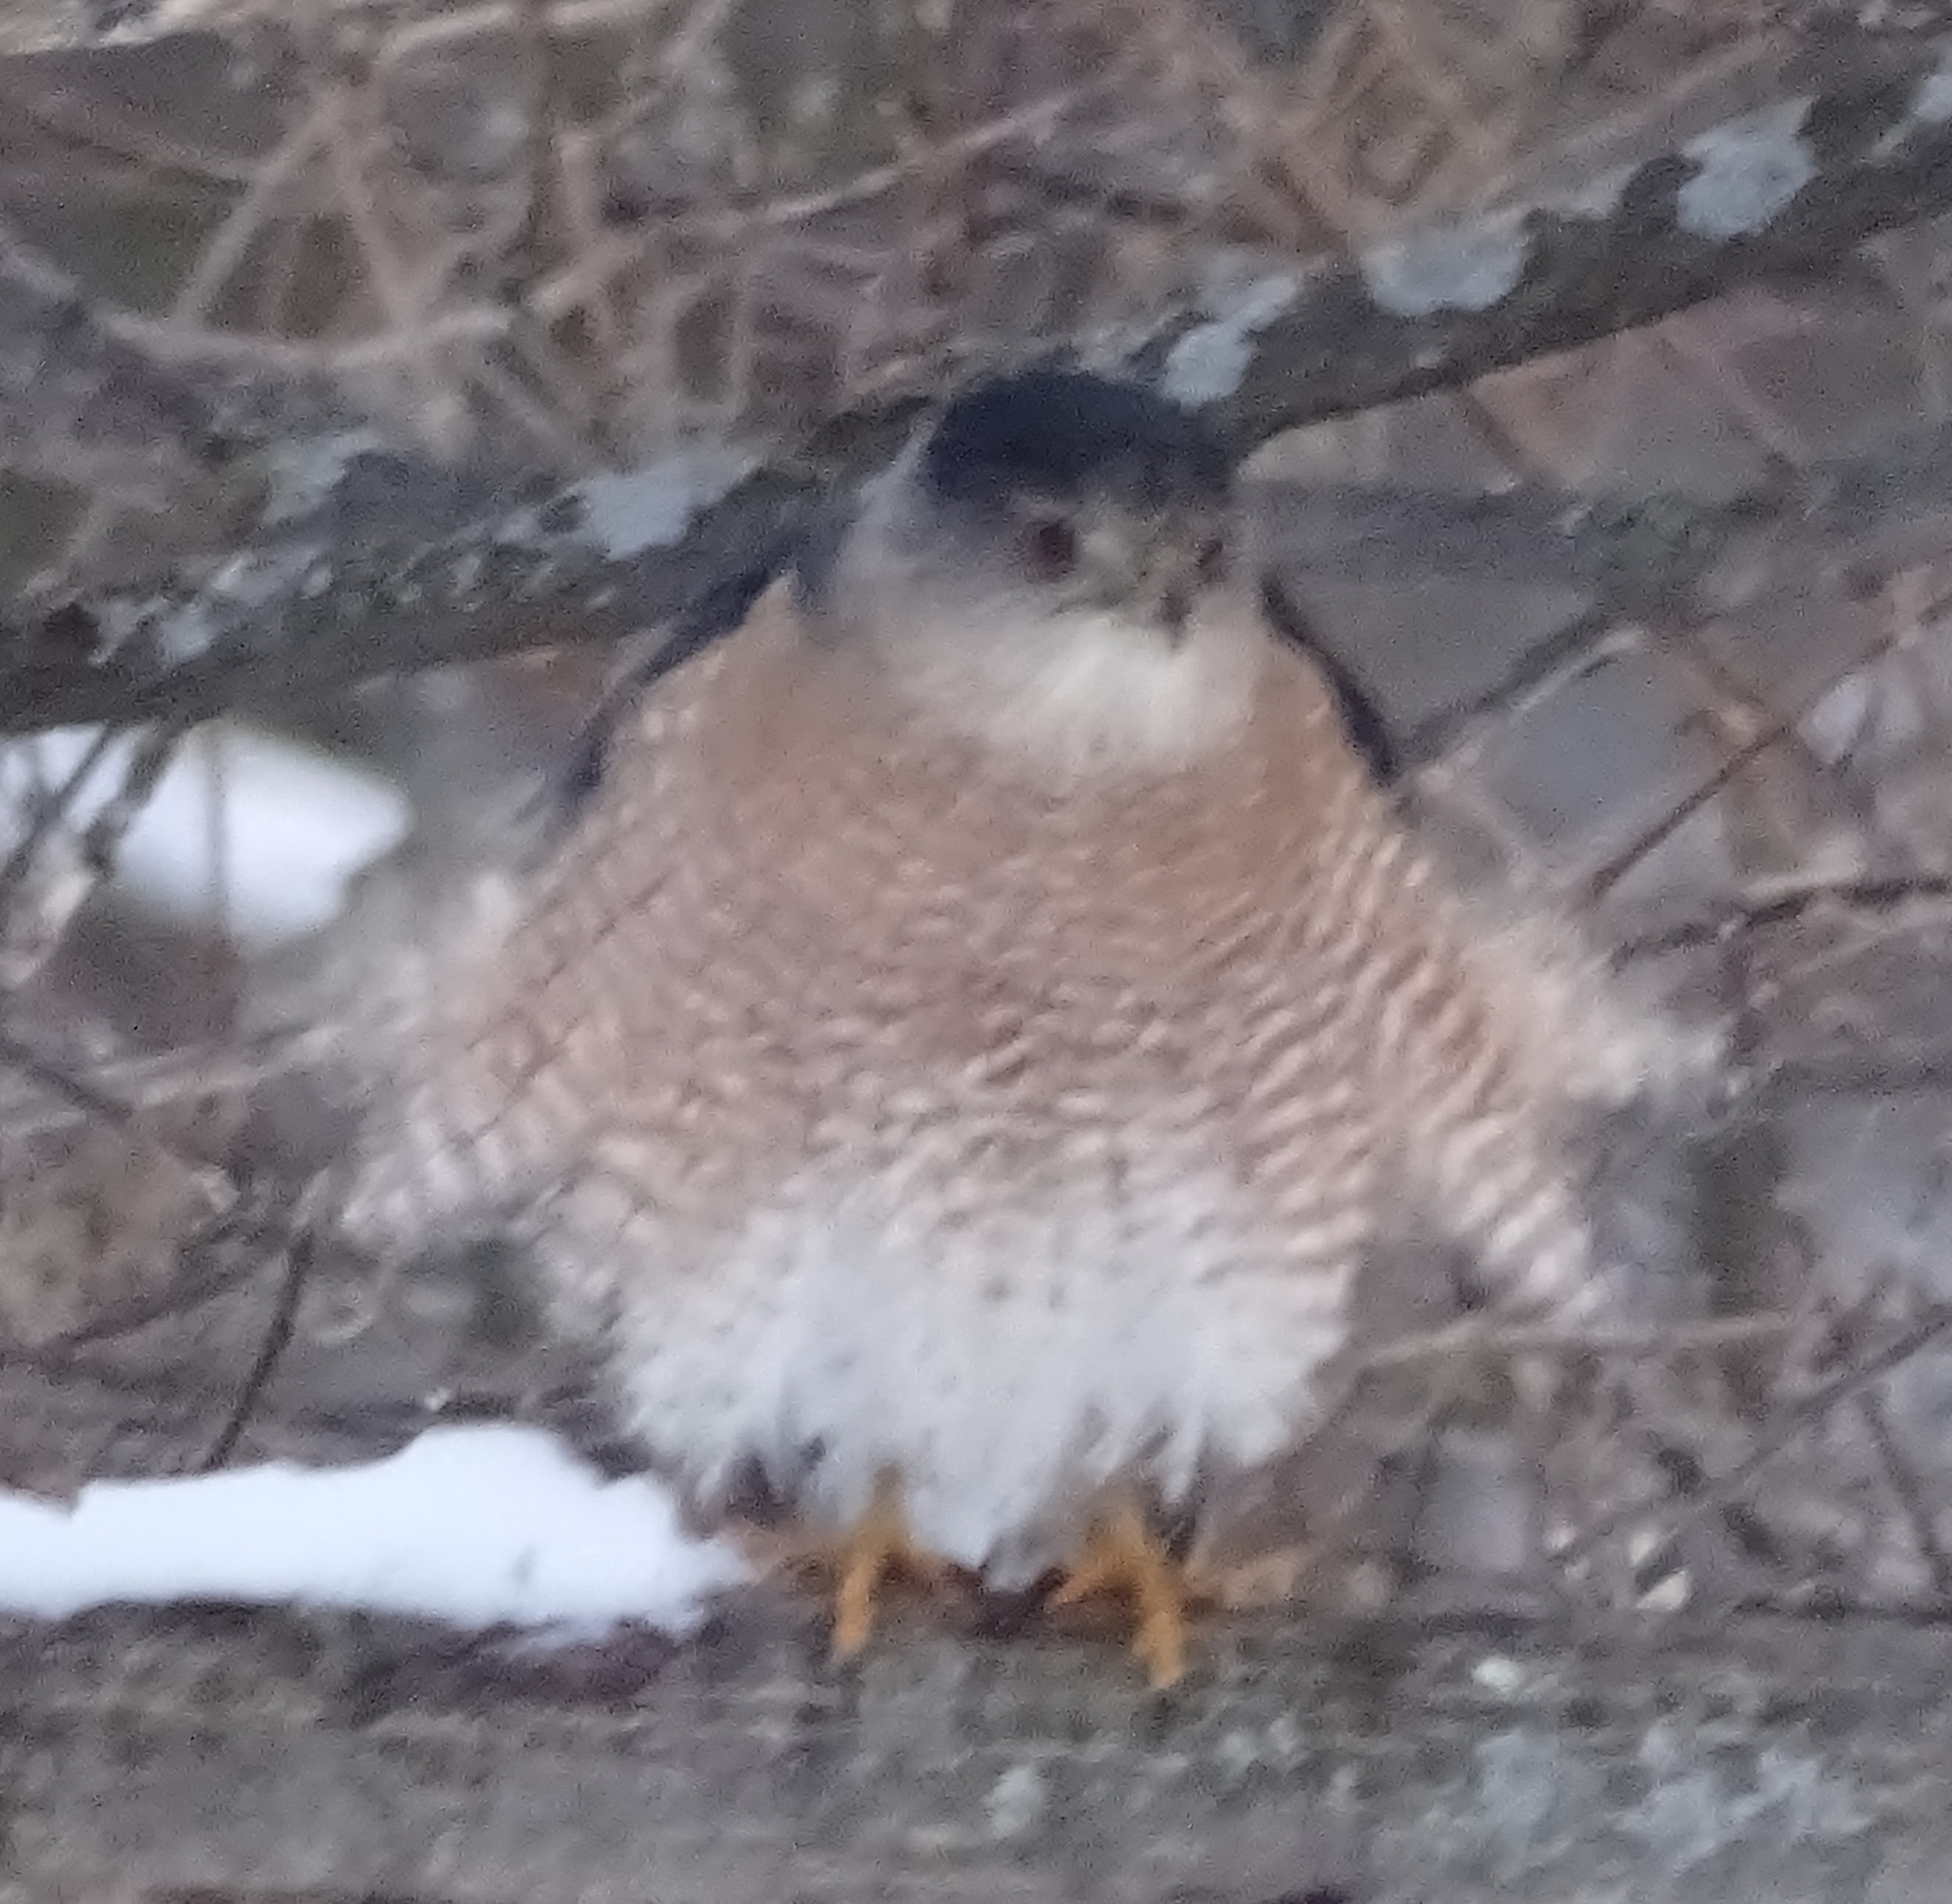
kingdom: Animalia
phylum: Chordata
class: Aves
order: Accipitriformes
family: Accipitridae
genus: Accipiter
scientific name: Accipiter cooperii
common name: Cooper's hawk
